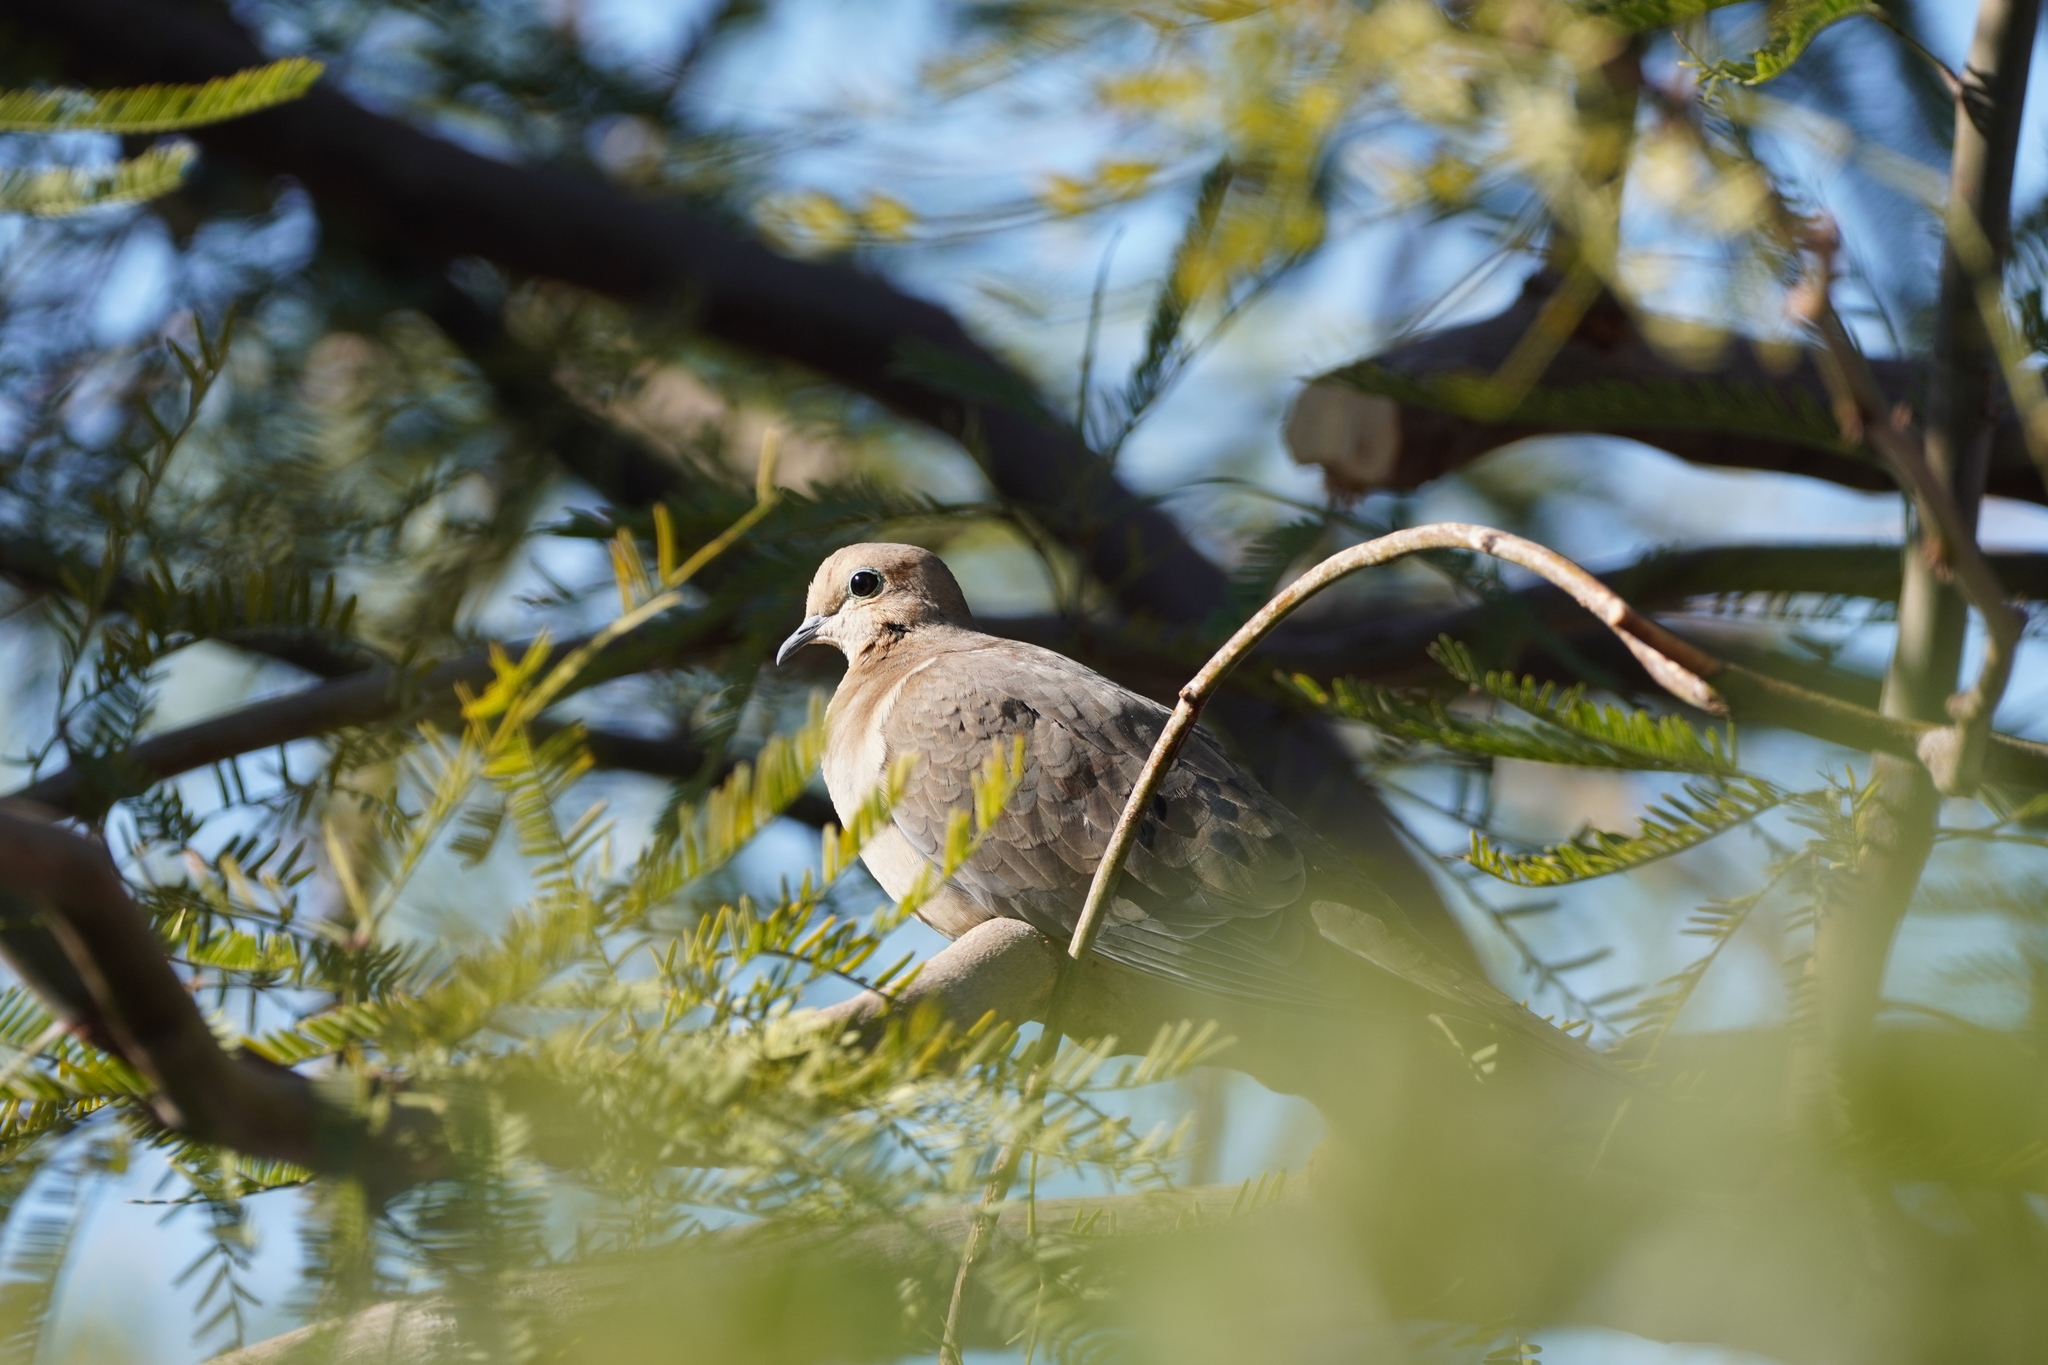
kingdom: Animalia
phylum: Chordata
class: Aves
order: Columbiformes
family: Columbidae
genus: Zenaida
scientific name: Zenaida macroura
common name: Mourning dove
